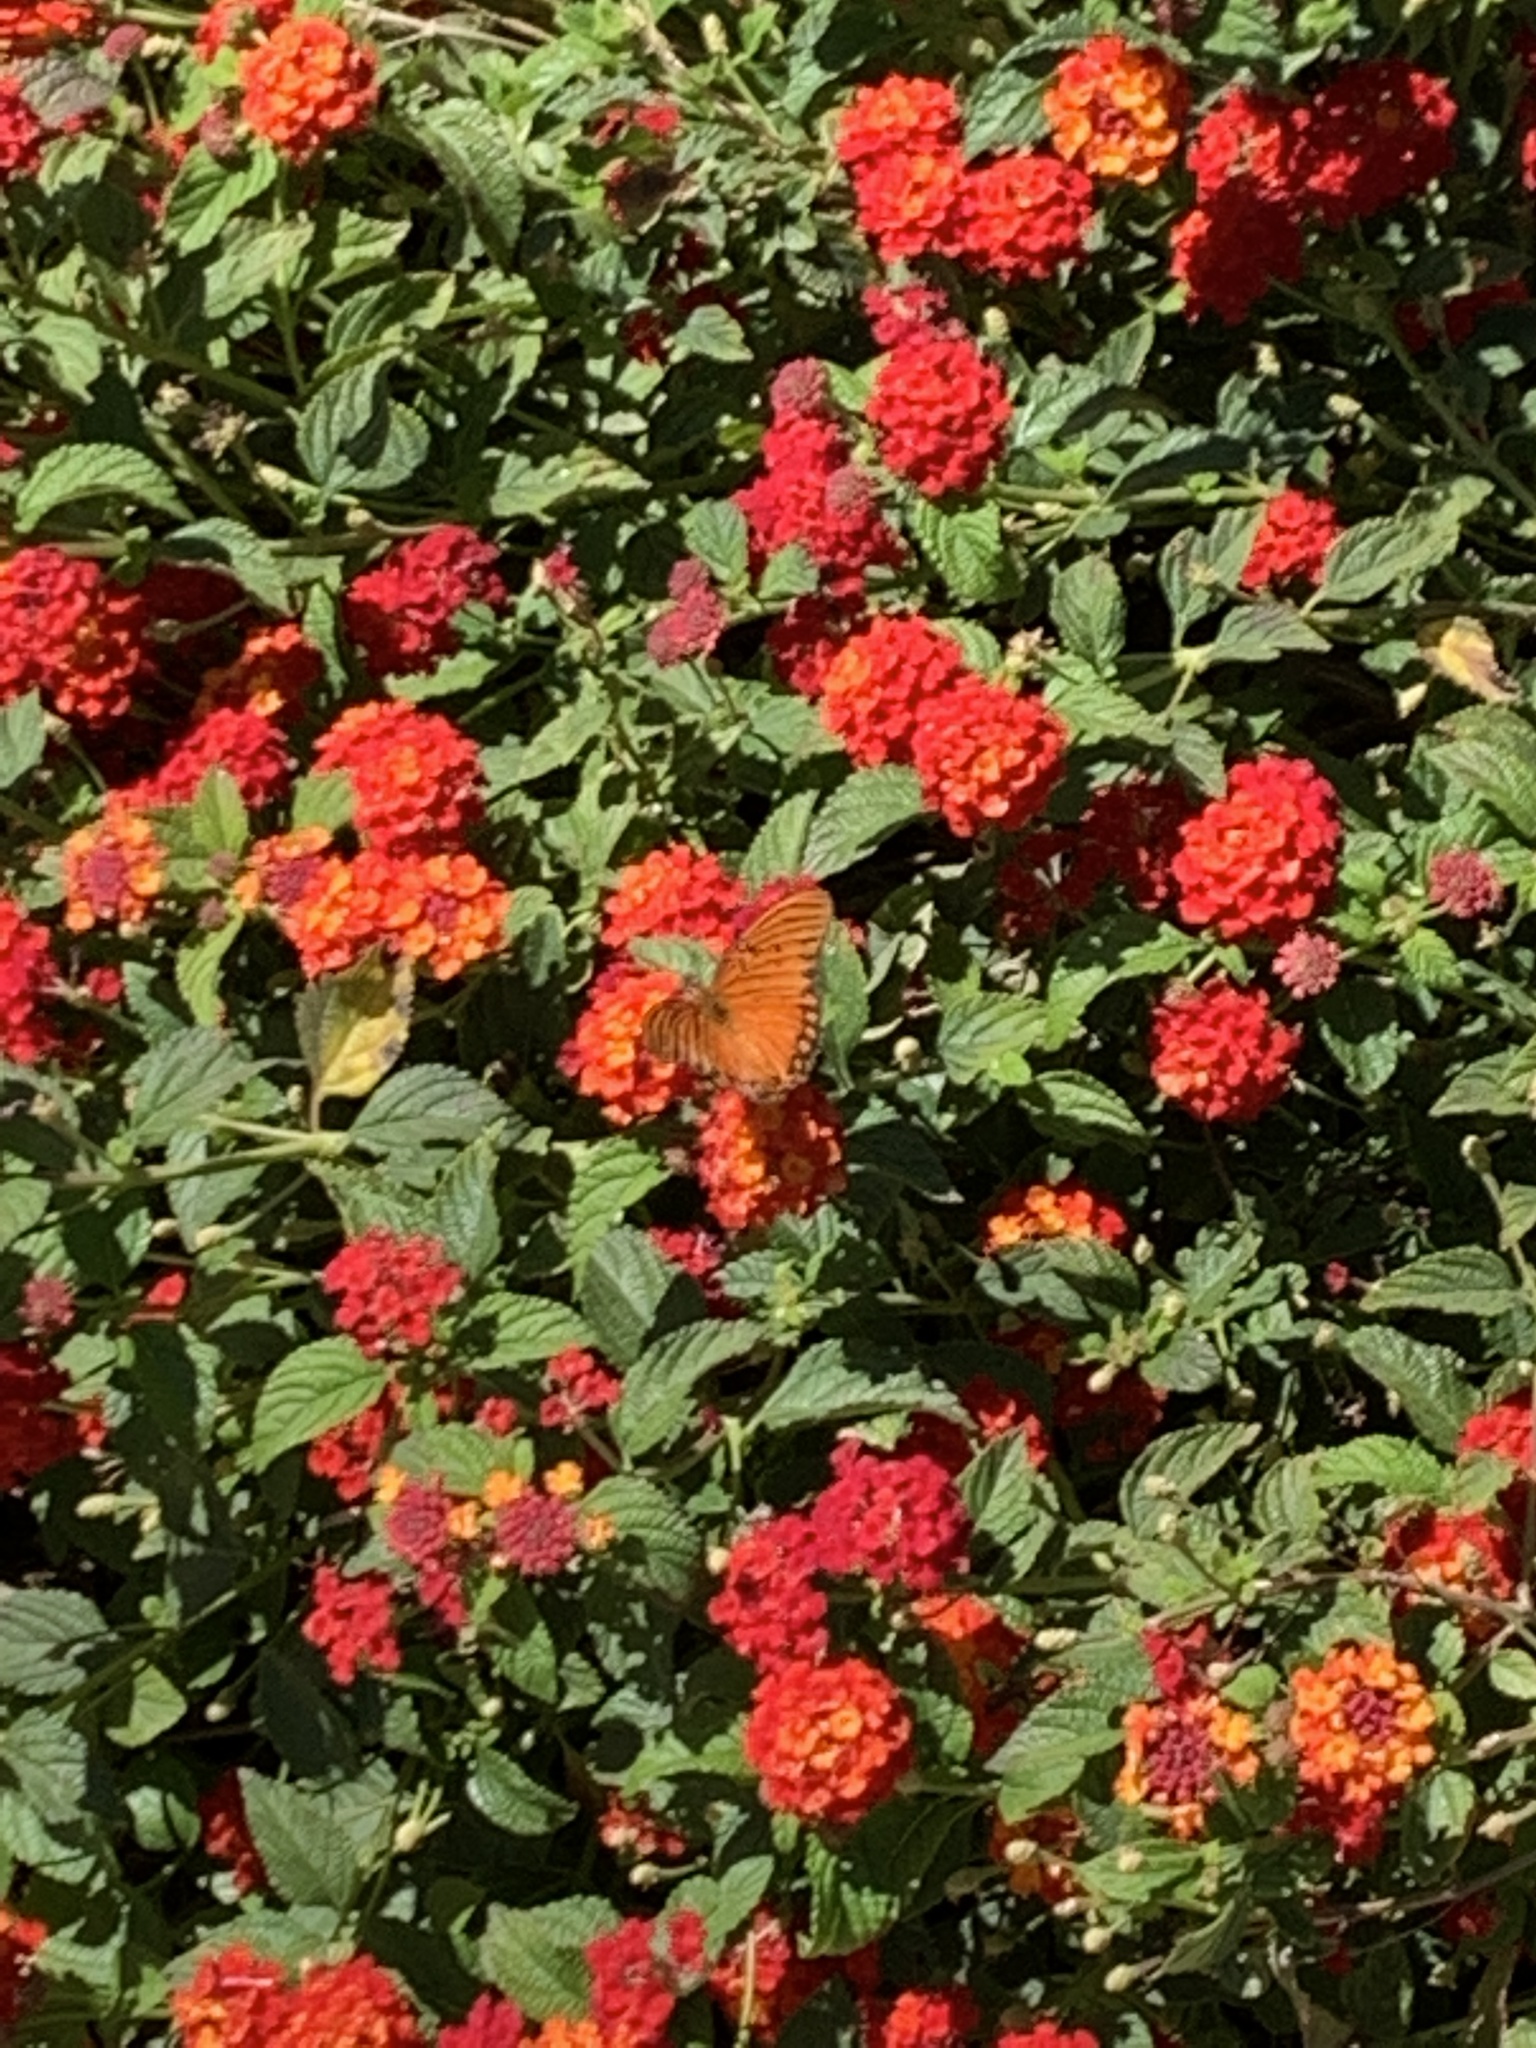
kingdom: Animalia
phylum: Arthropoda
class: Insecta
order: Lepidoptera
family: Nymphalidae
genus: Dione
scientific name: Dione vanillae
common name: Gulf fritillary
